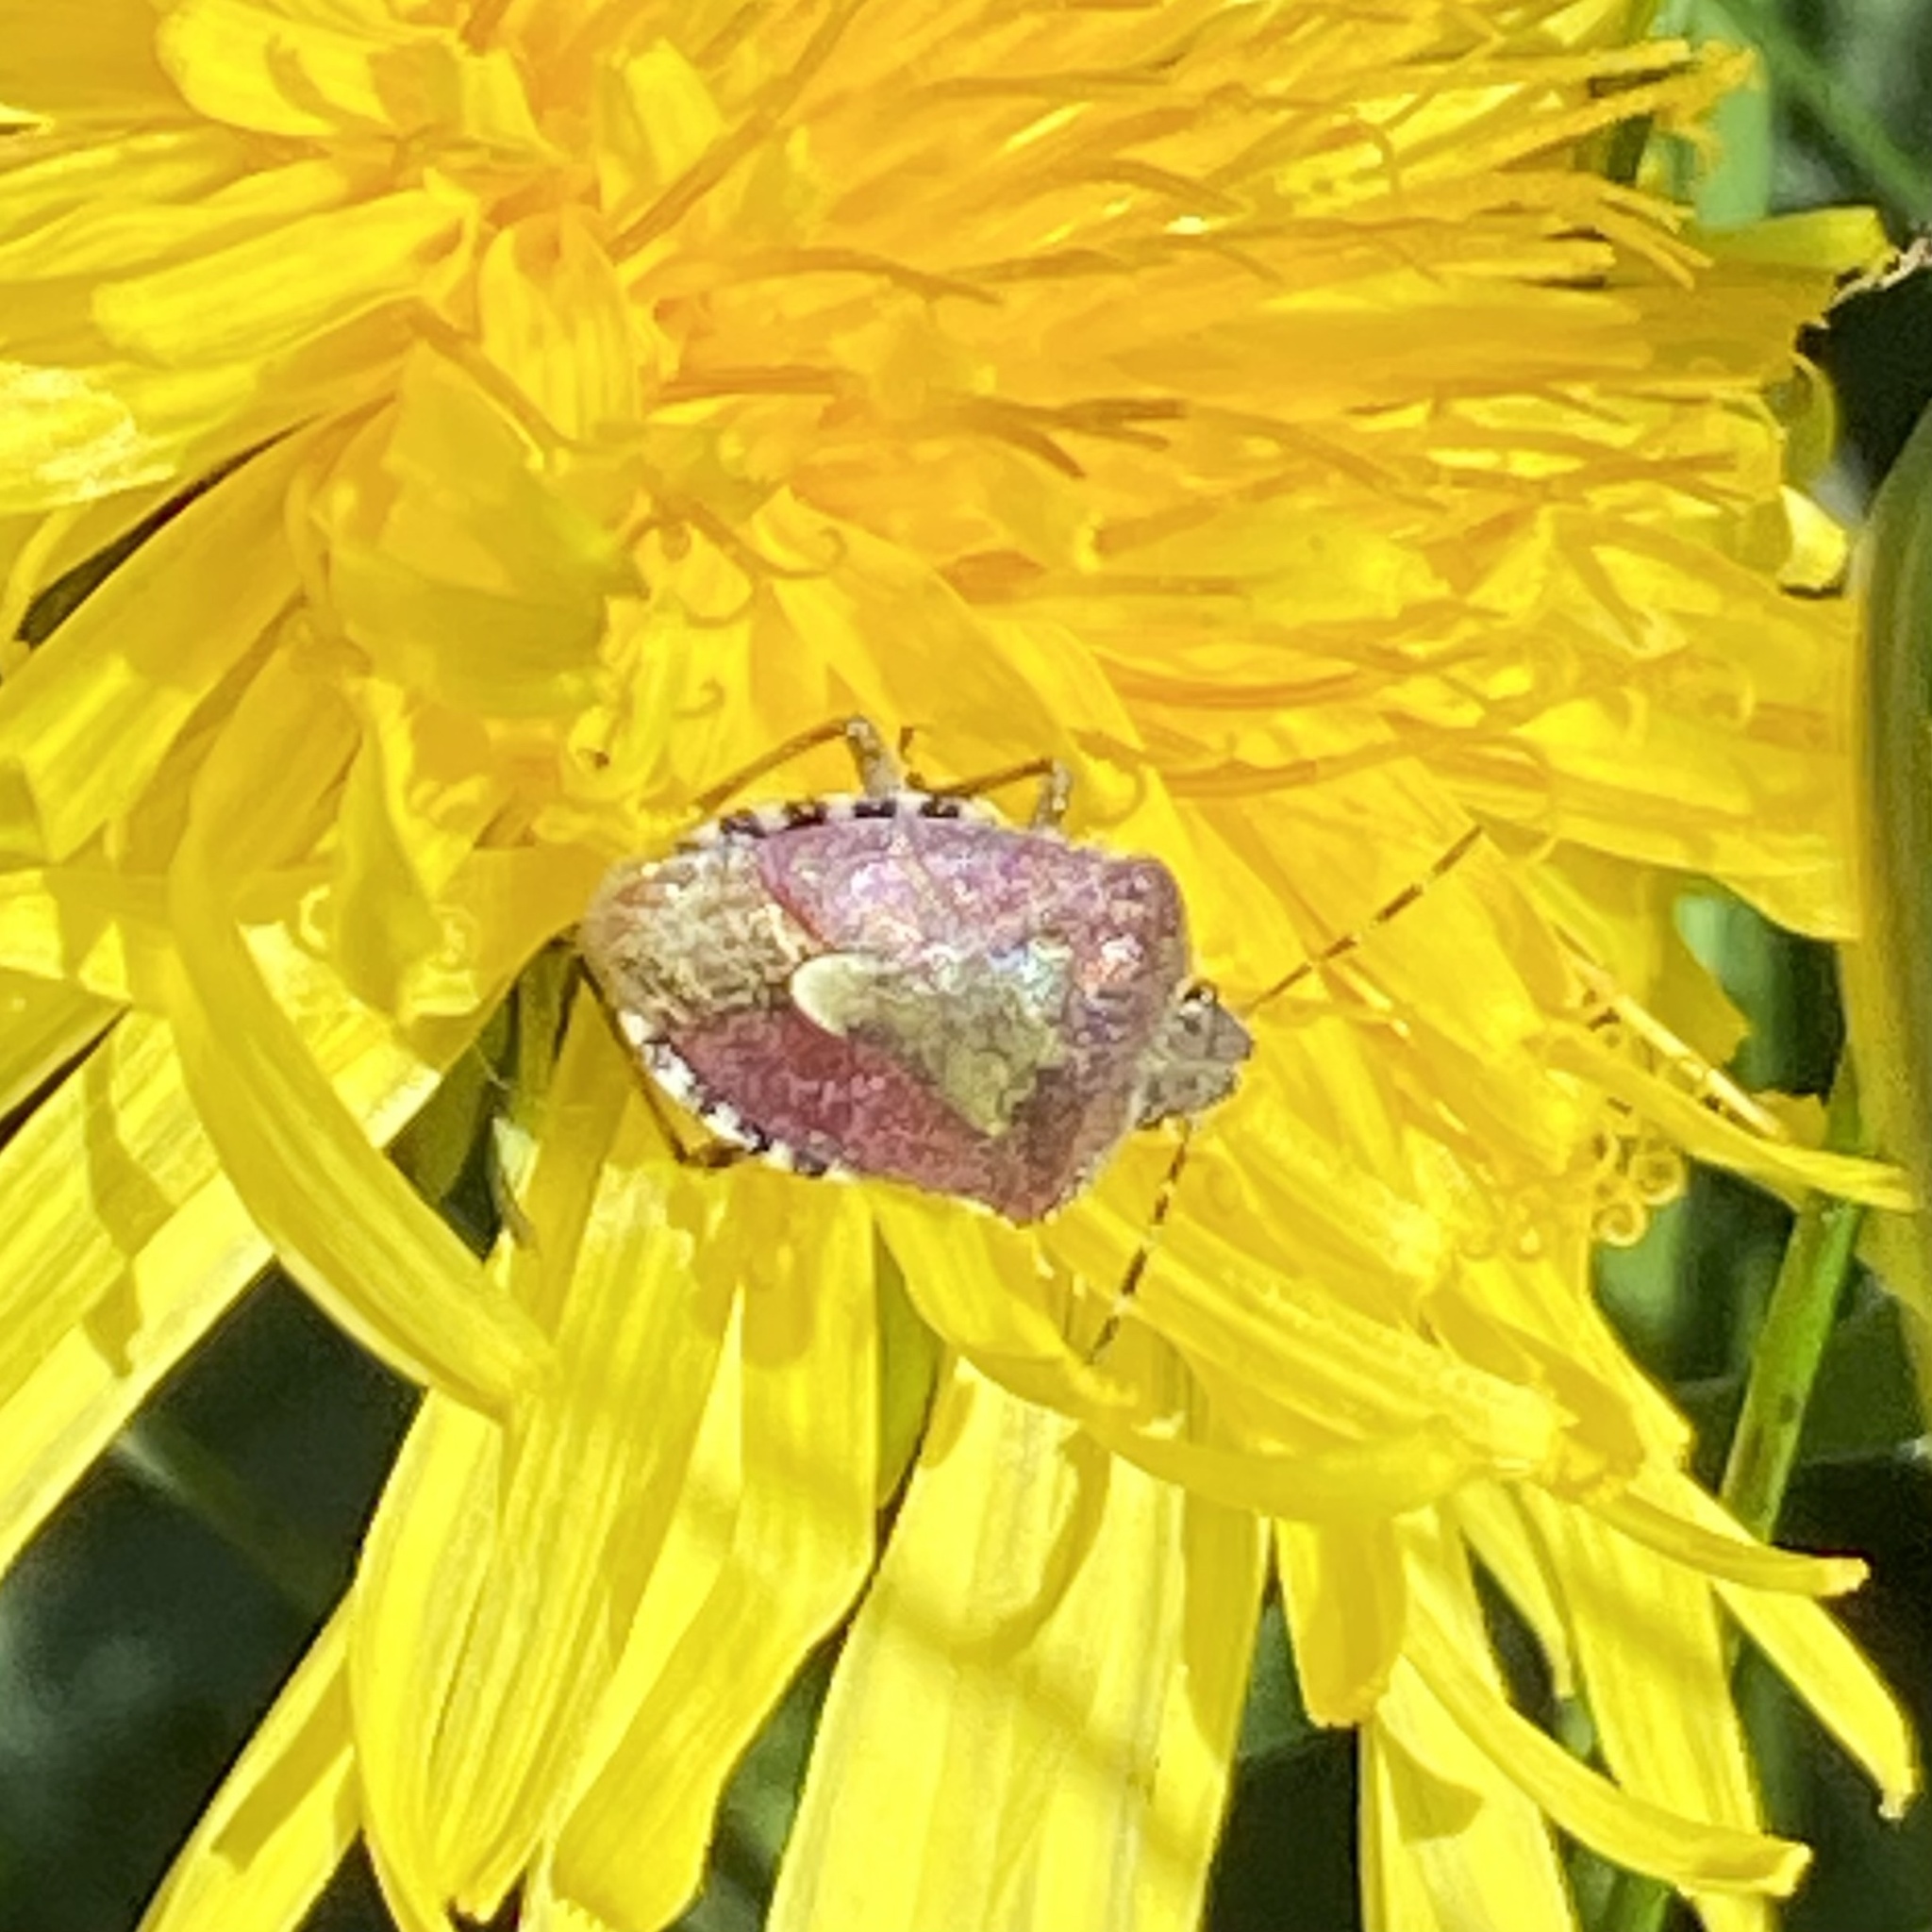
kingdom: Animalia
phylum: Arthropoda
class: Insecta
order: Hemiptera
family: Pentatomidae
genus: Dolycoris
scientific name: Dolycoris baccarum
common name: Sloe bug
